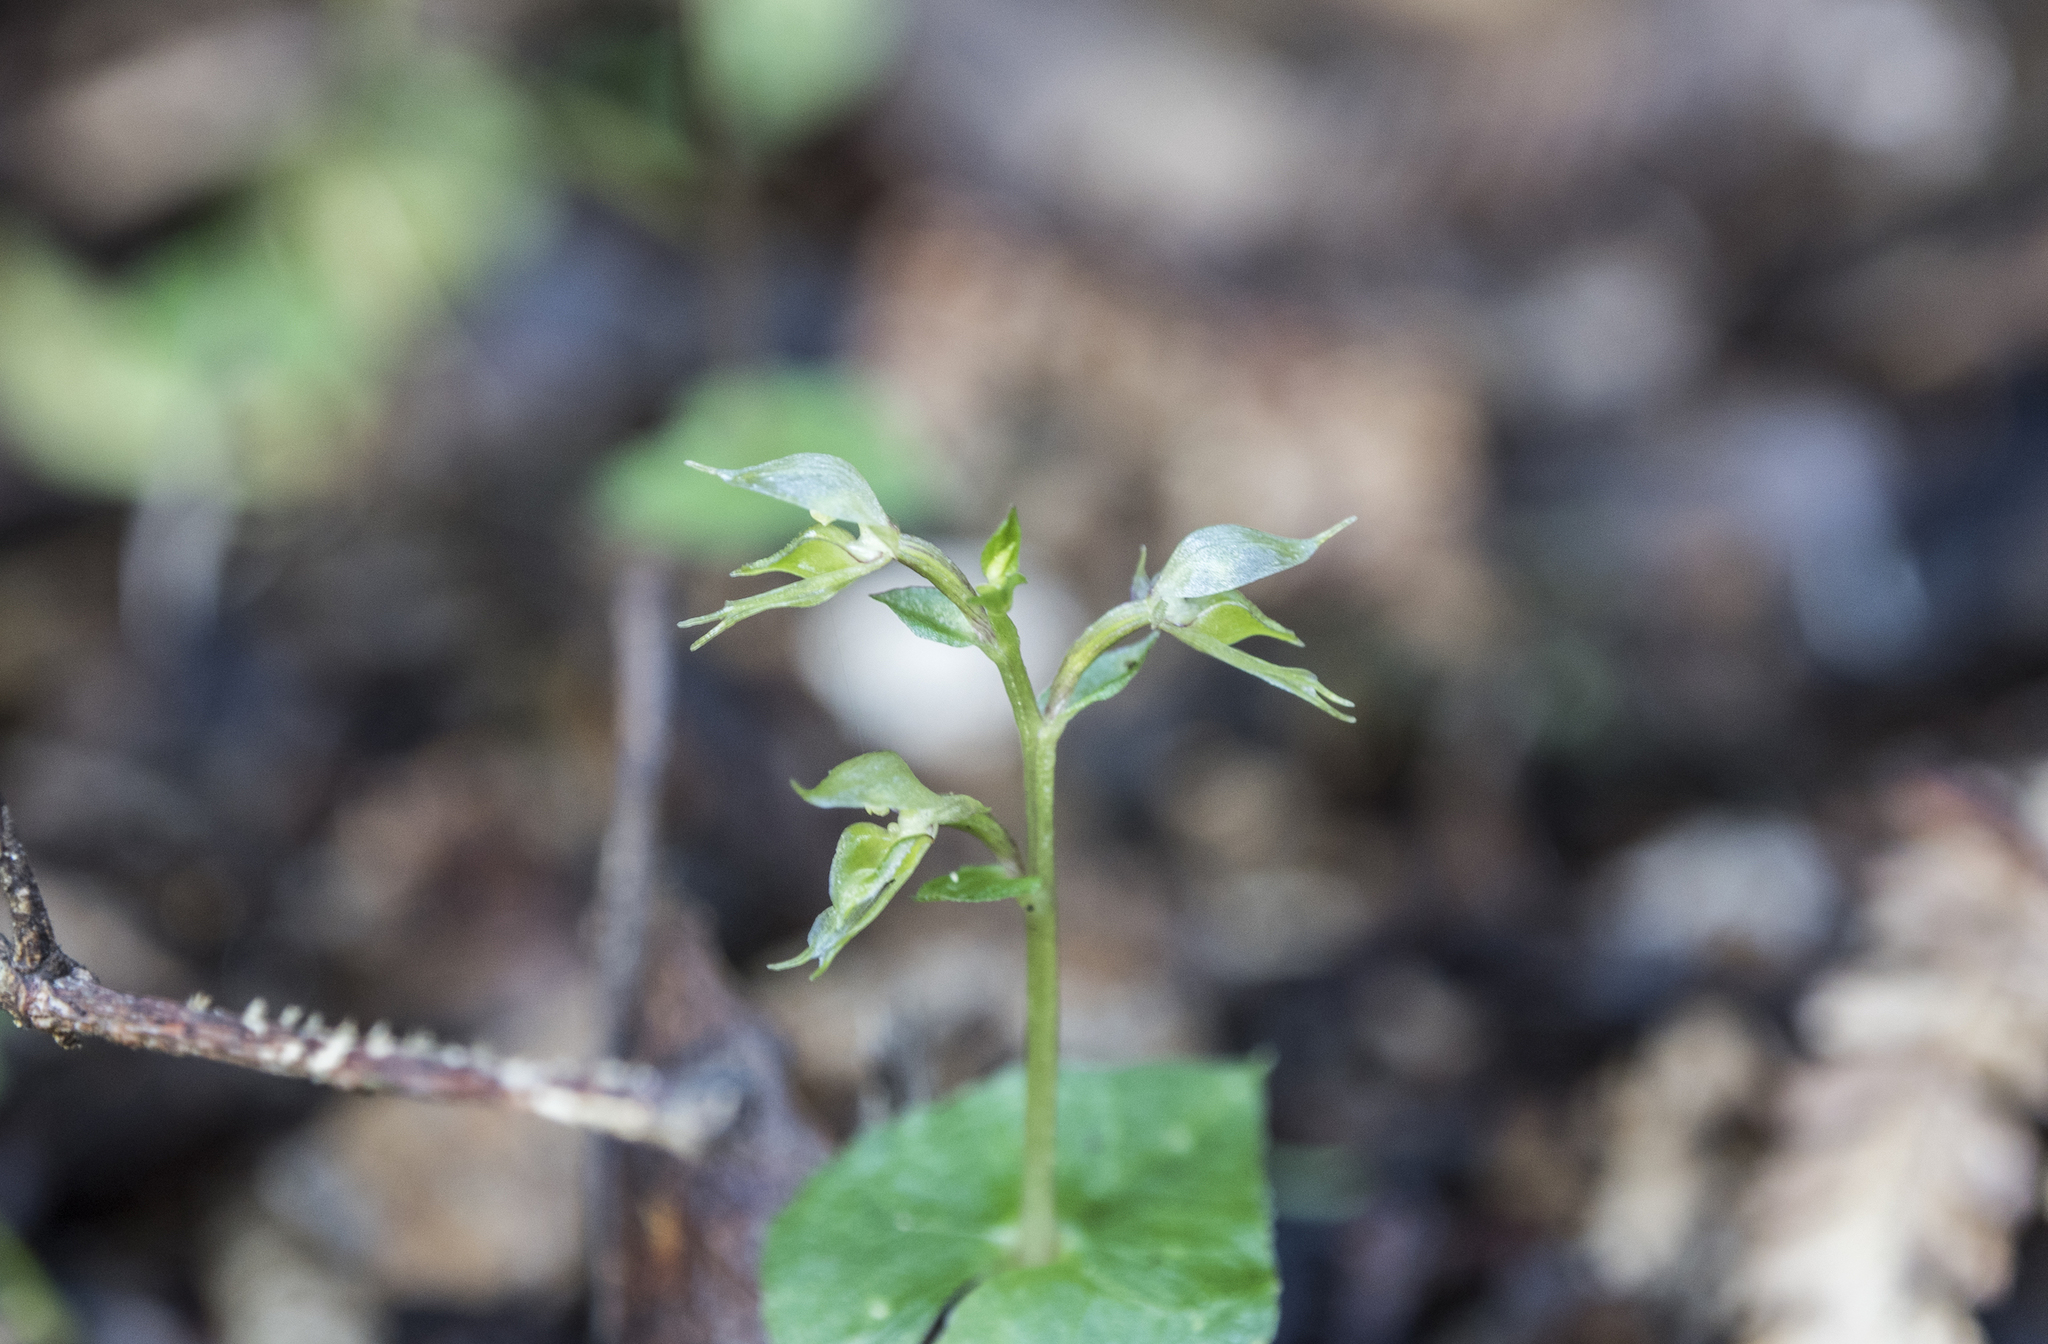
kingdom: Plantae
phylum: Tracheophyta
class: Liliopsida
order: Asparagales
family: Orchidaceae
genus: Acianthus
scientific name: Acianthus sinclairii
